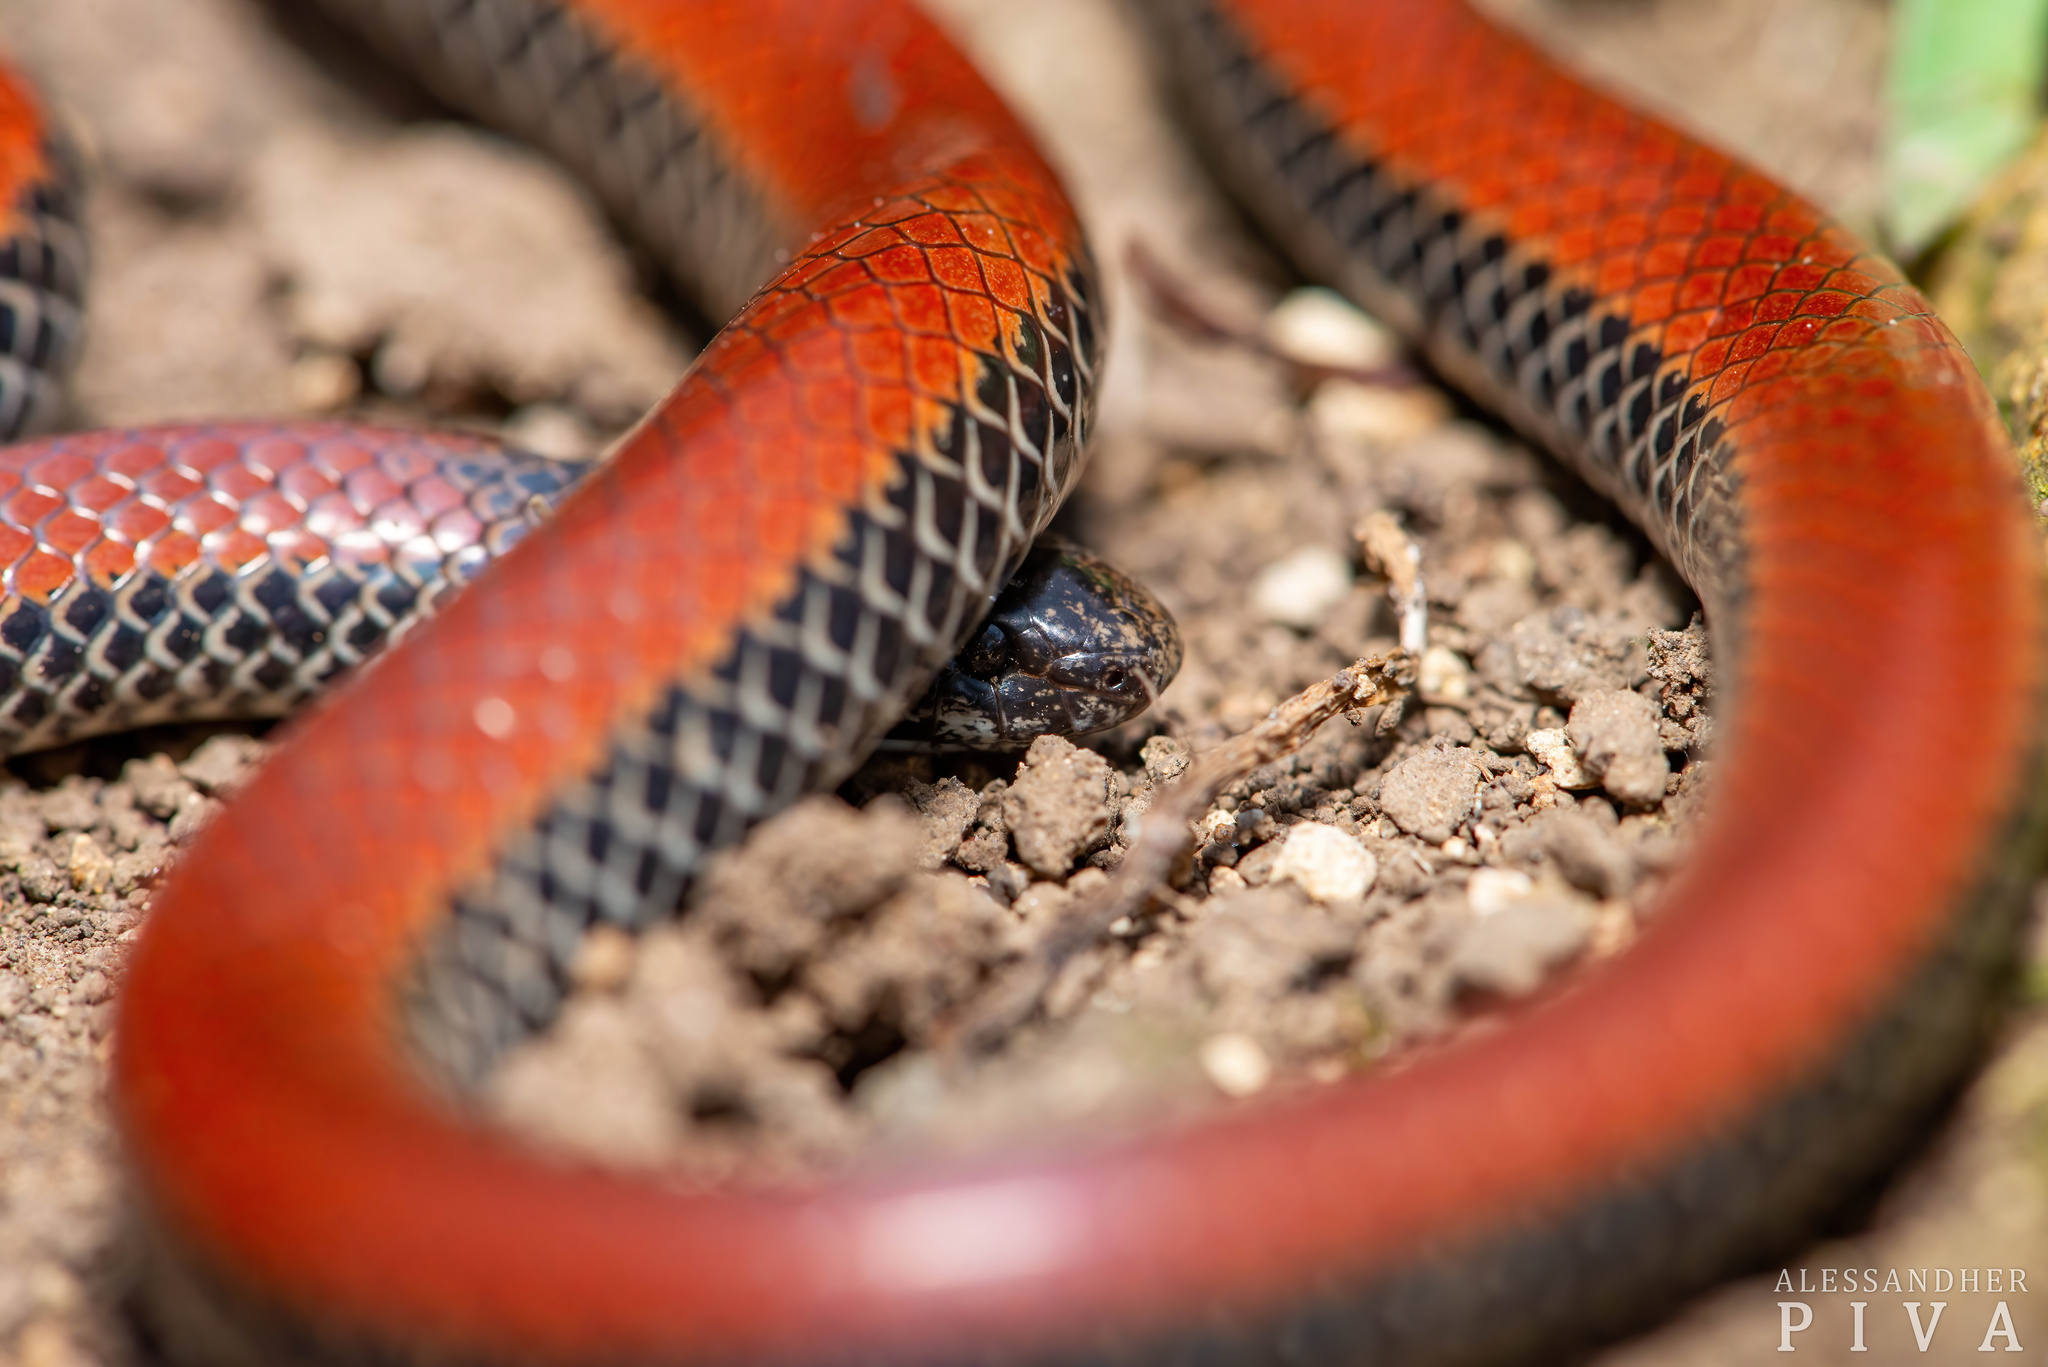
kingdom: Animalia
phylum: Chordata
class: Squamata
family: Colubridae
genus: Phalotris
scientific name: Phalotris reticulatus
